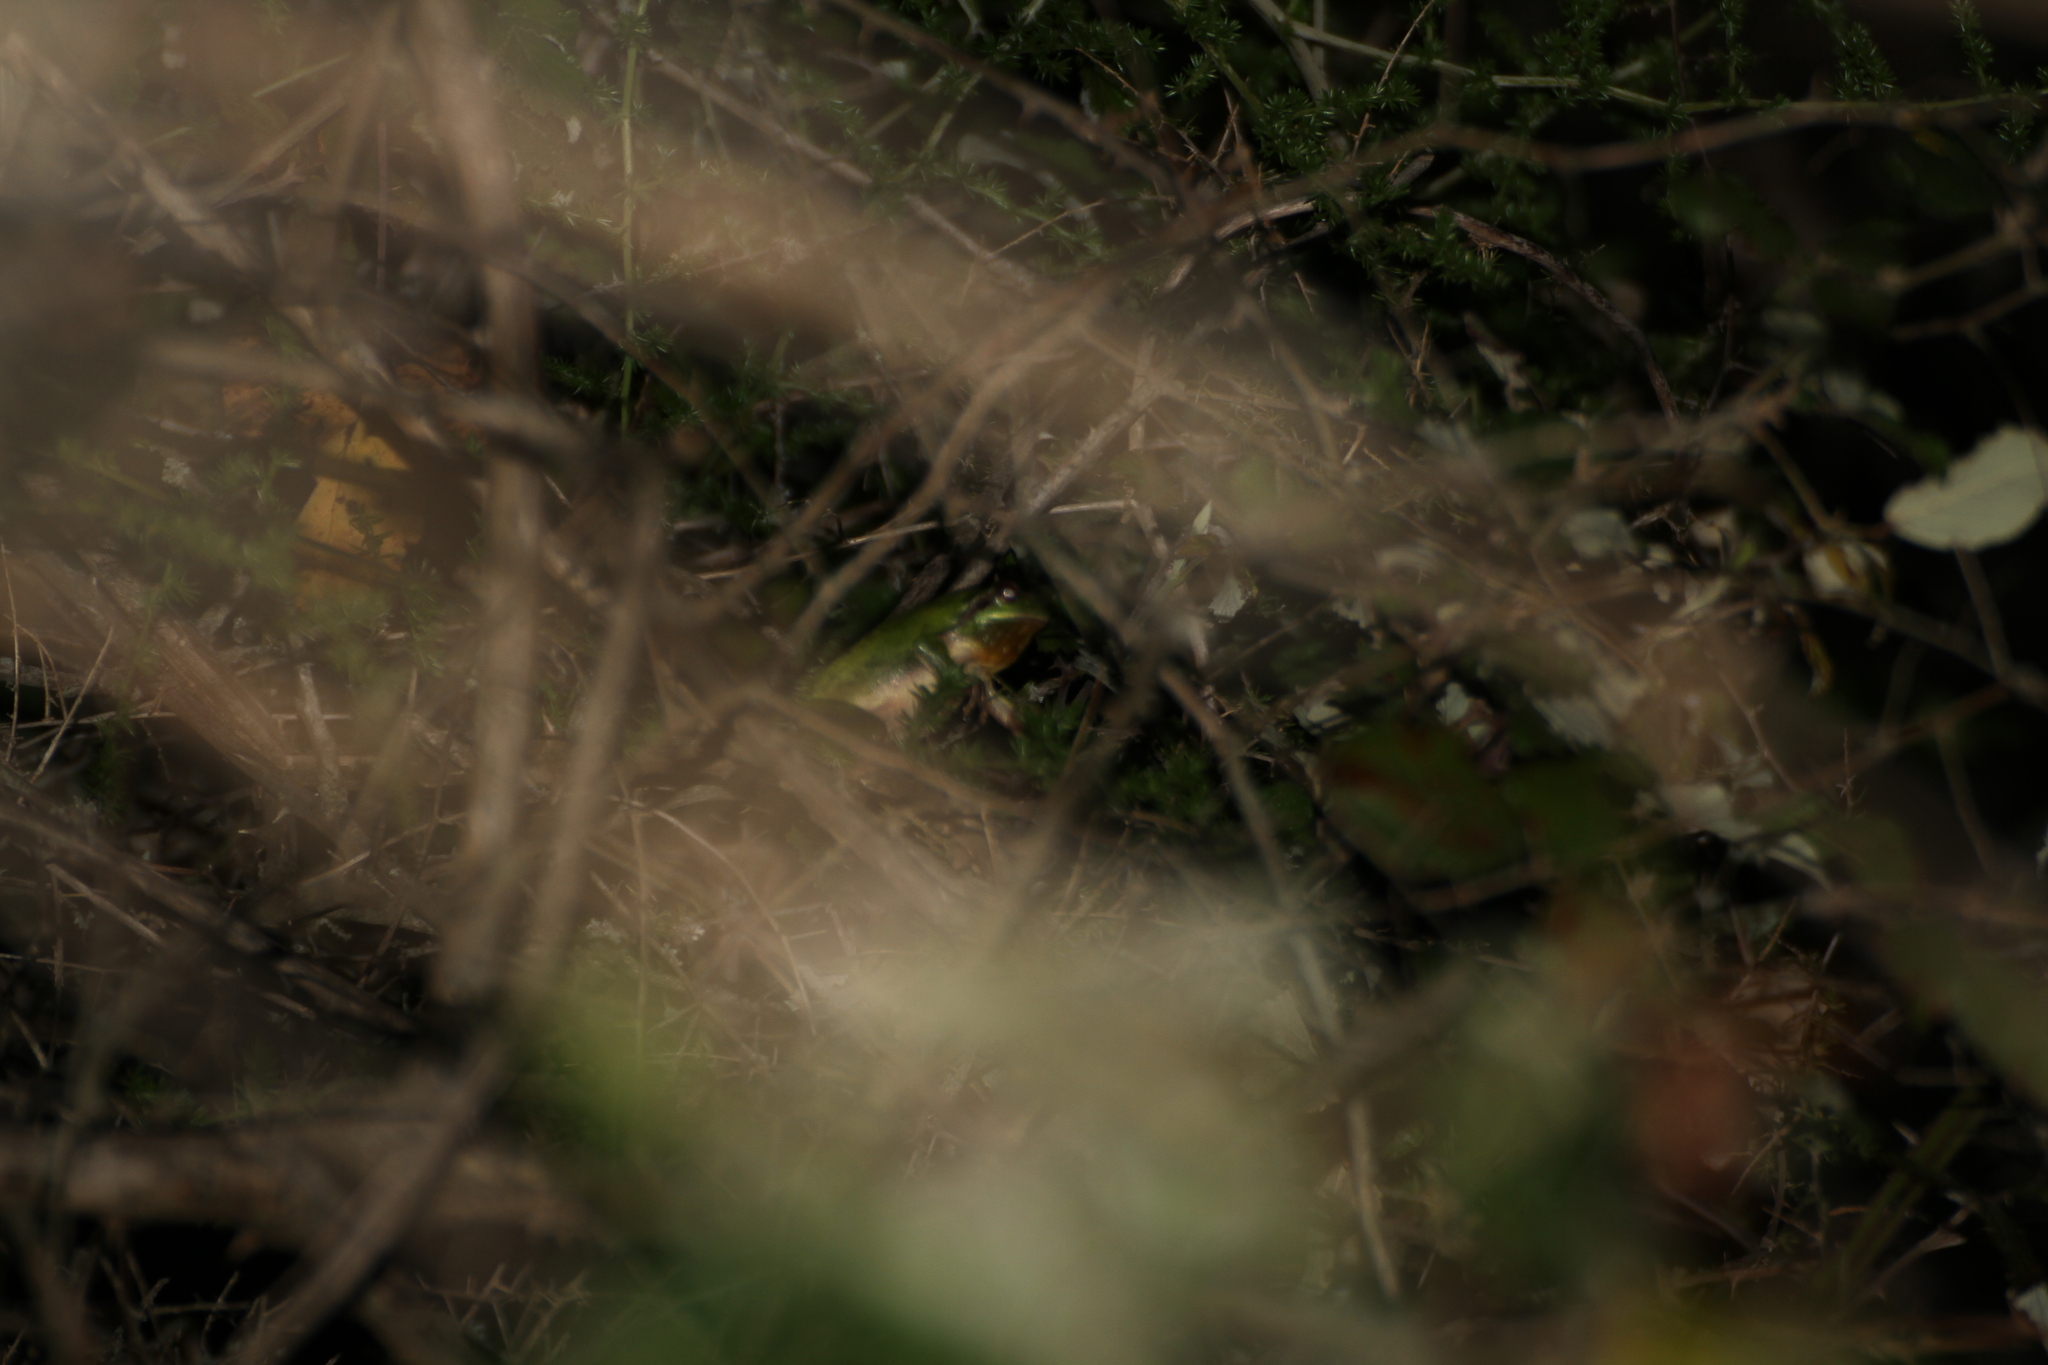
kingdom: Animalia
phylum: Chordata
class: Amphibia
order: Anura
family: Hylidae
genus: Hyla
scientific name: Hyla meridionalis
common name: Stripeless tree frog
